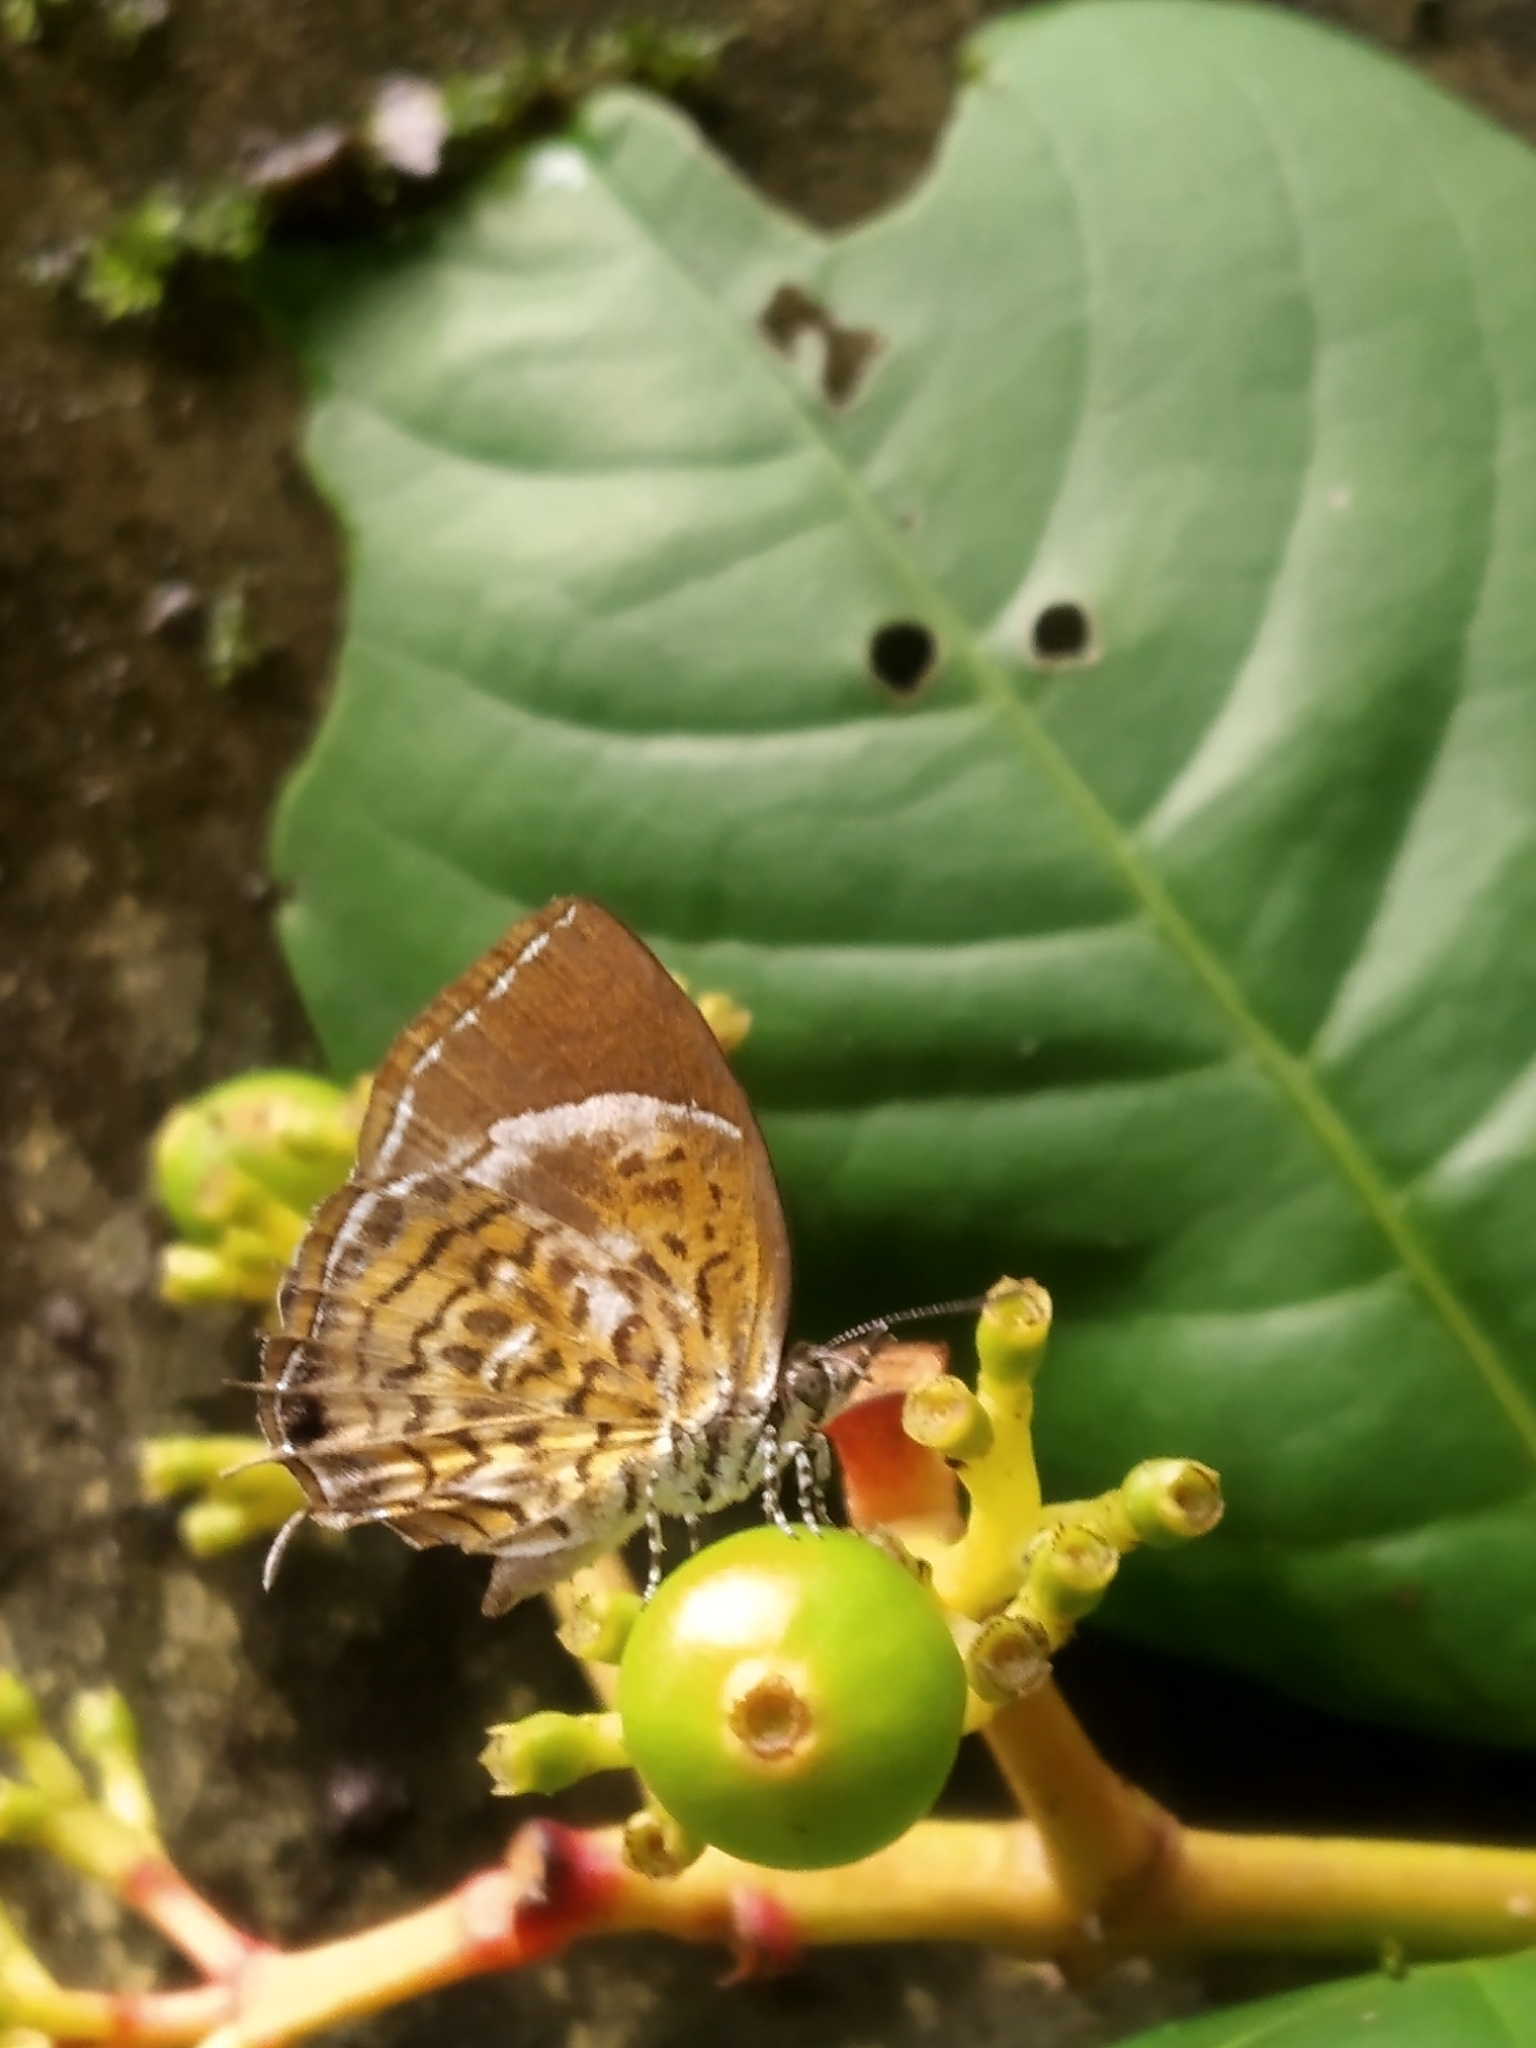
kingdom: Animalia
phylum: Arthropoda
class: Insecta
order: Lepidoptera
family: Lycaenidae
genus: Rathinda
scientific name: Rathinda amor
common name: Monkey puzzle
